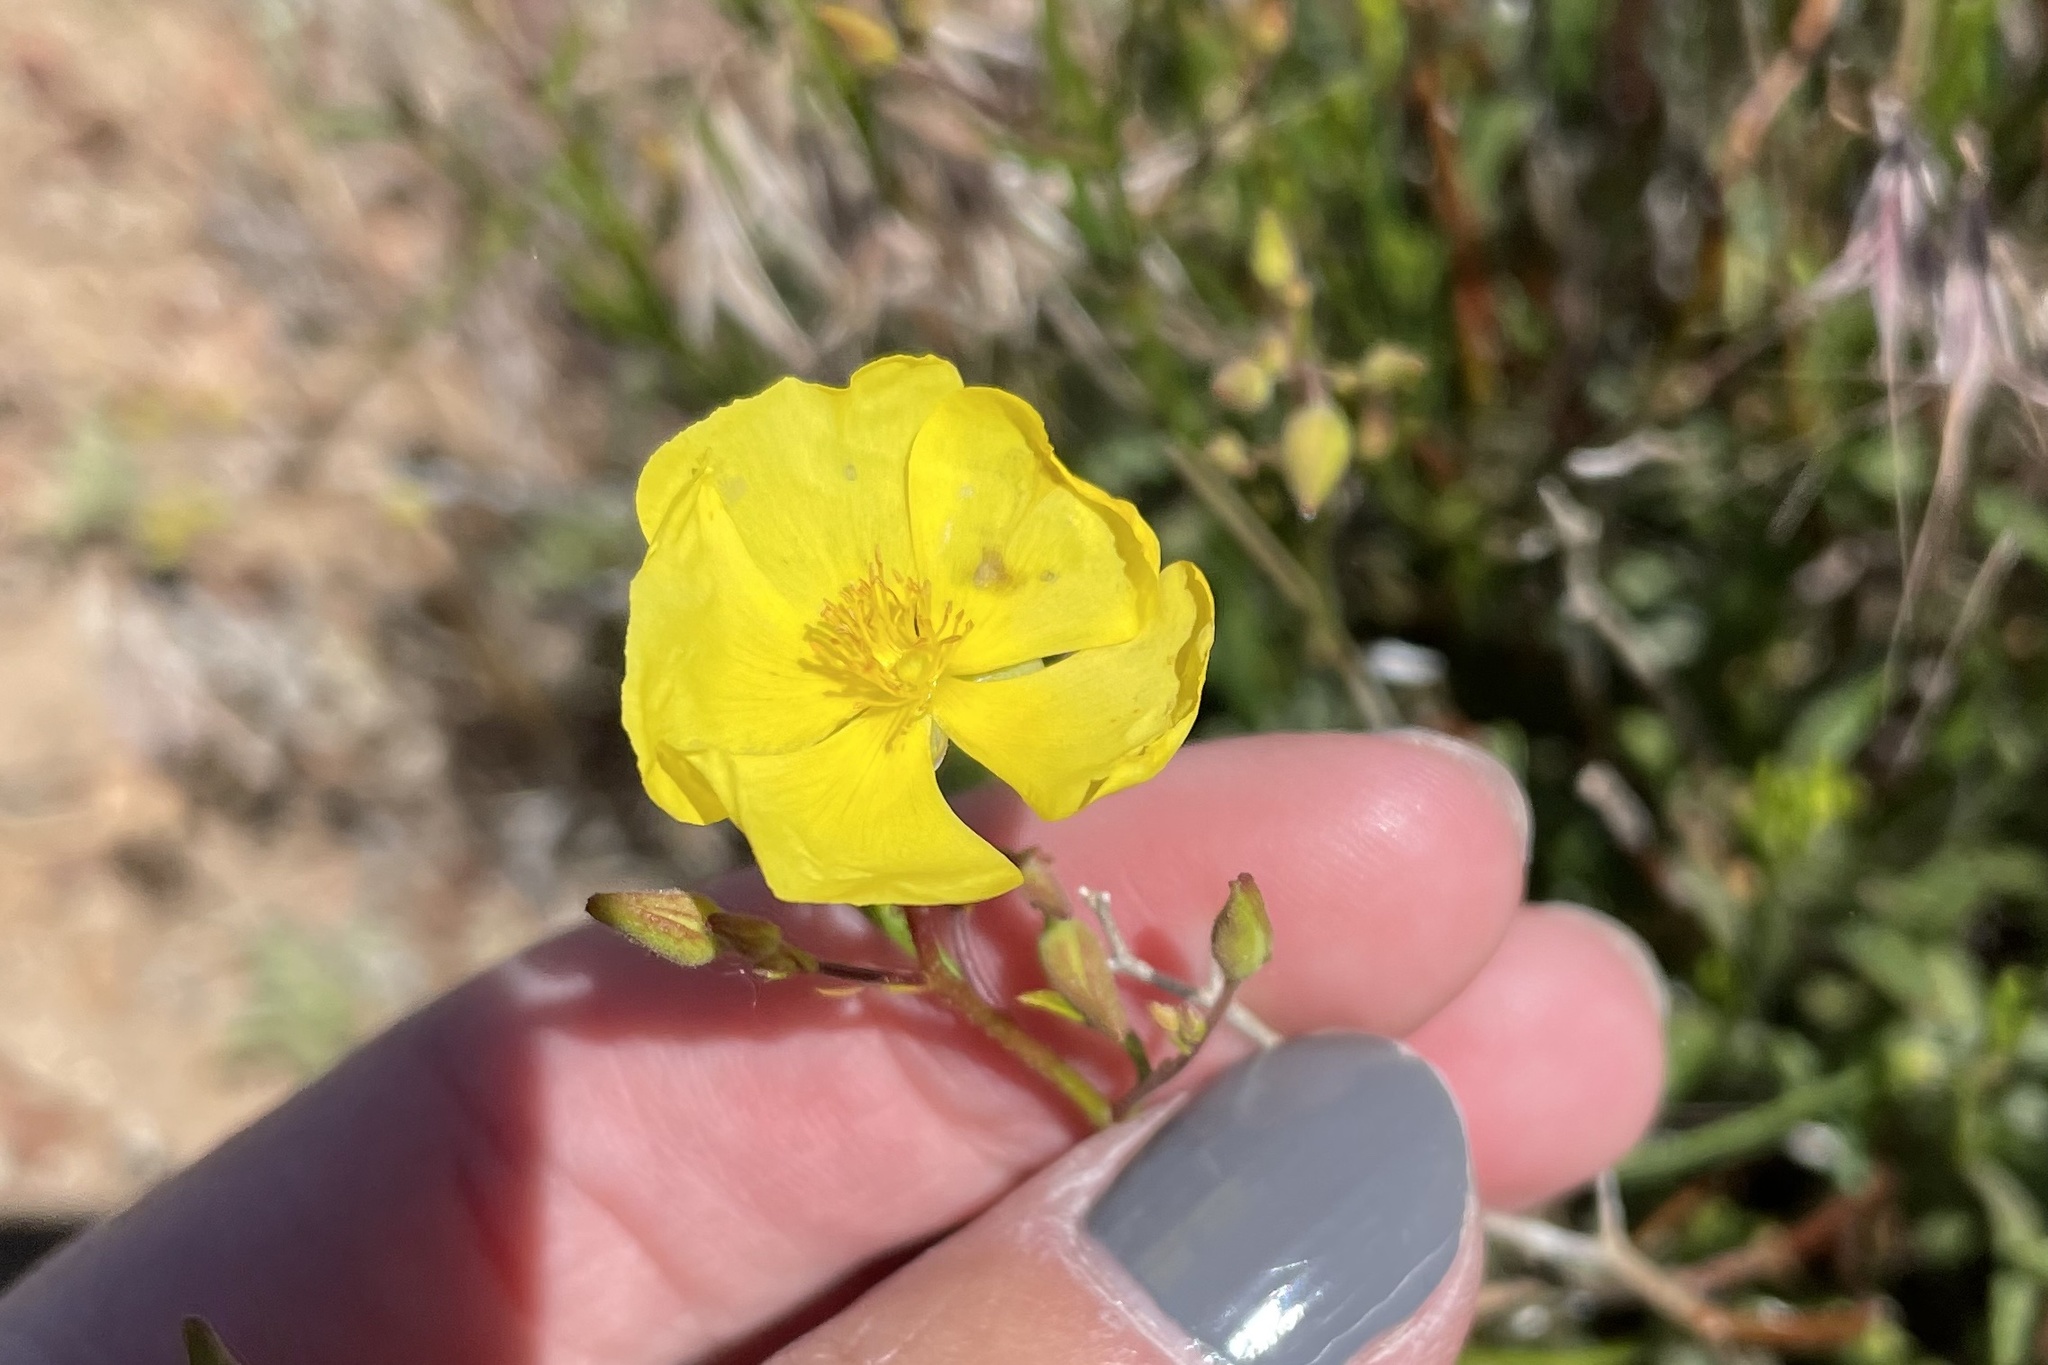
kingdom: Plantae
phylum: Tracheophyta
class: Magnoliopsida
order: Malvales
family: Cistaceae
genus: Crocanthemum
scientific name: Crocanthemum aldersonii
